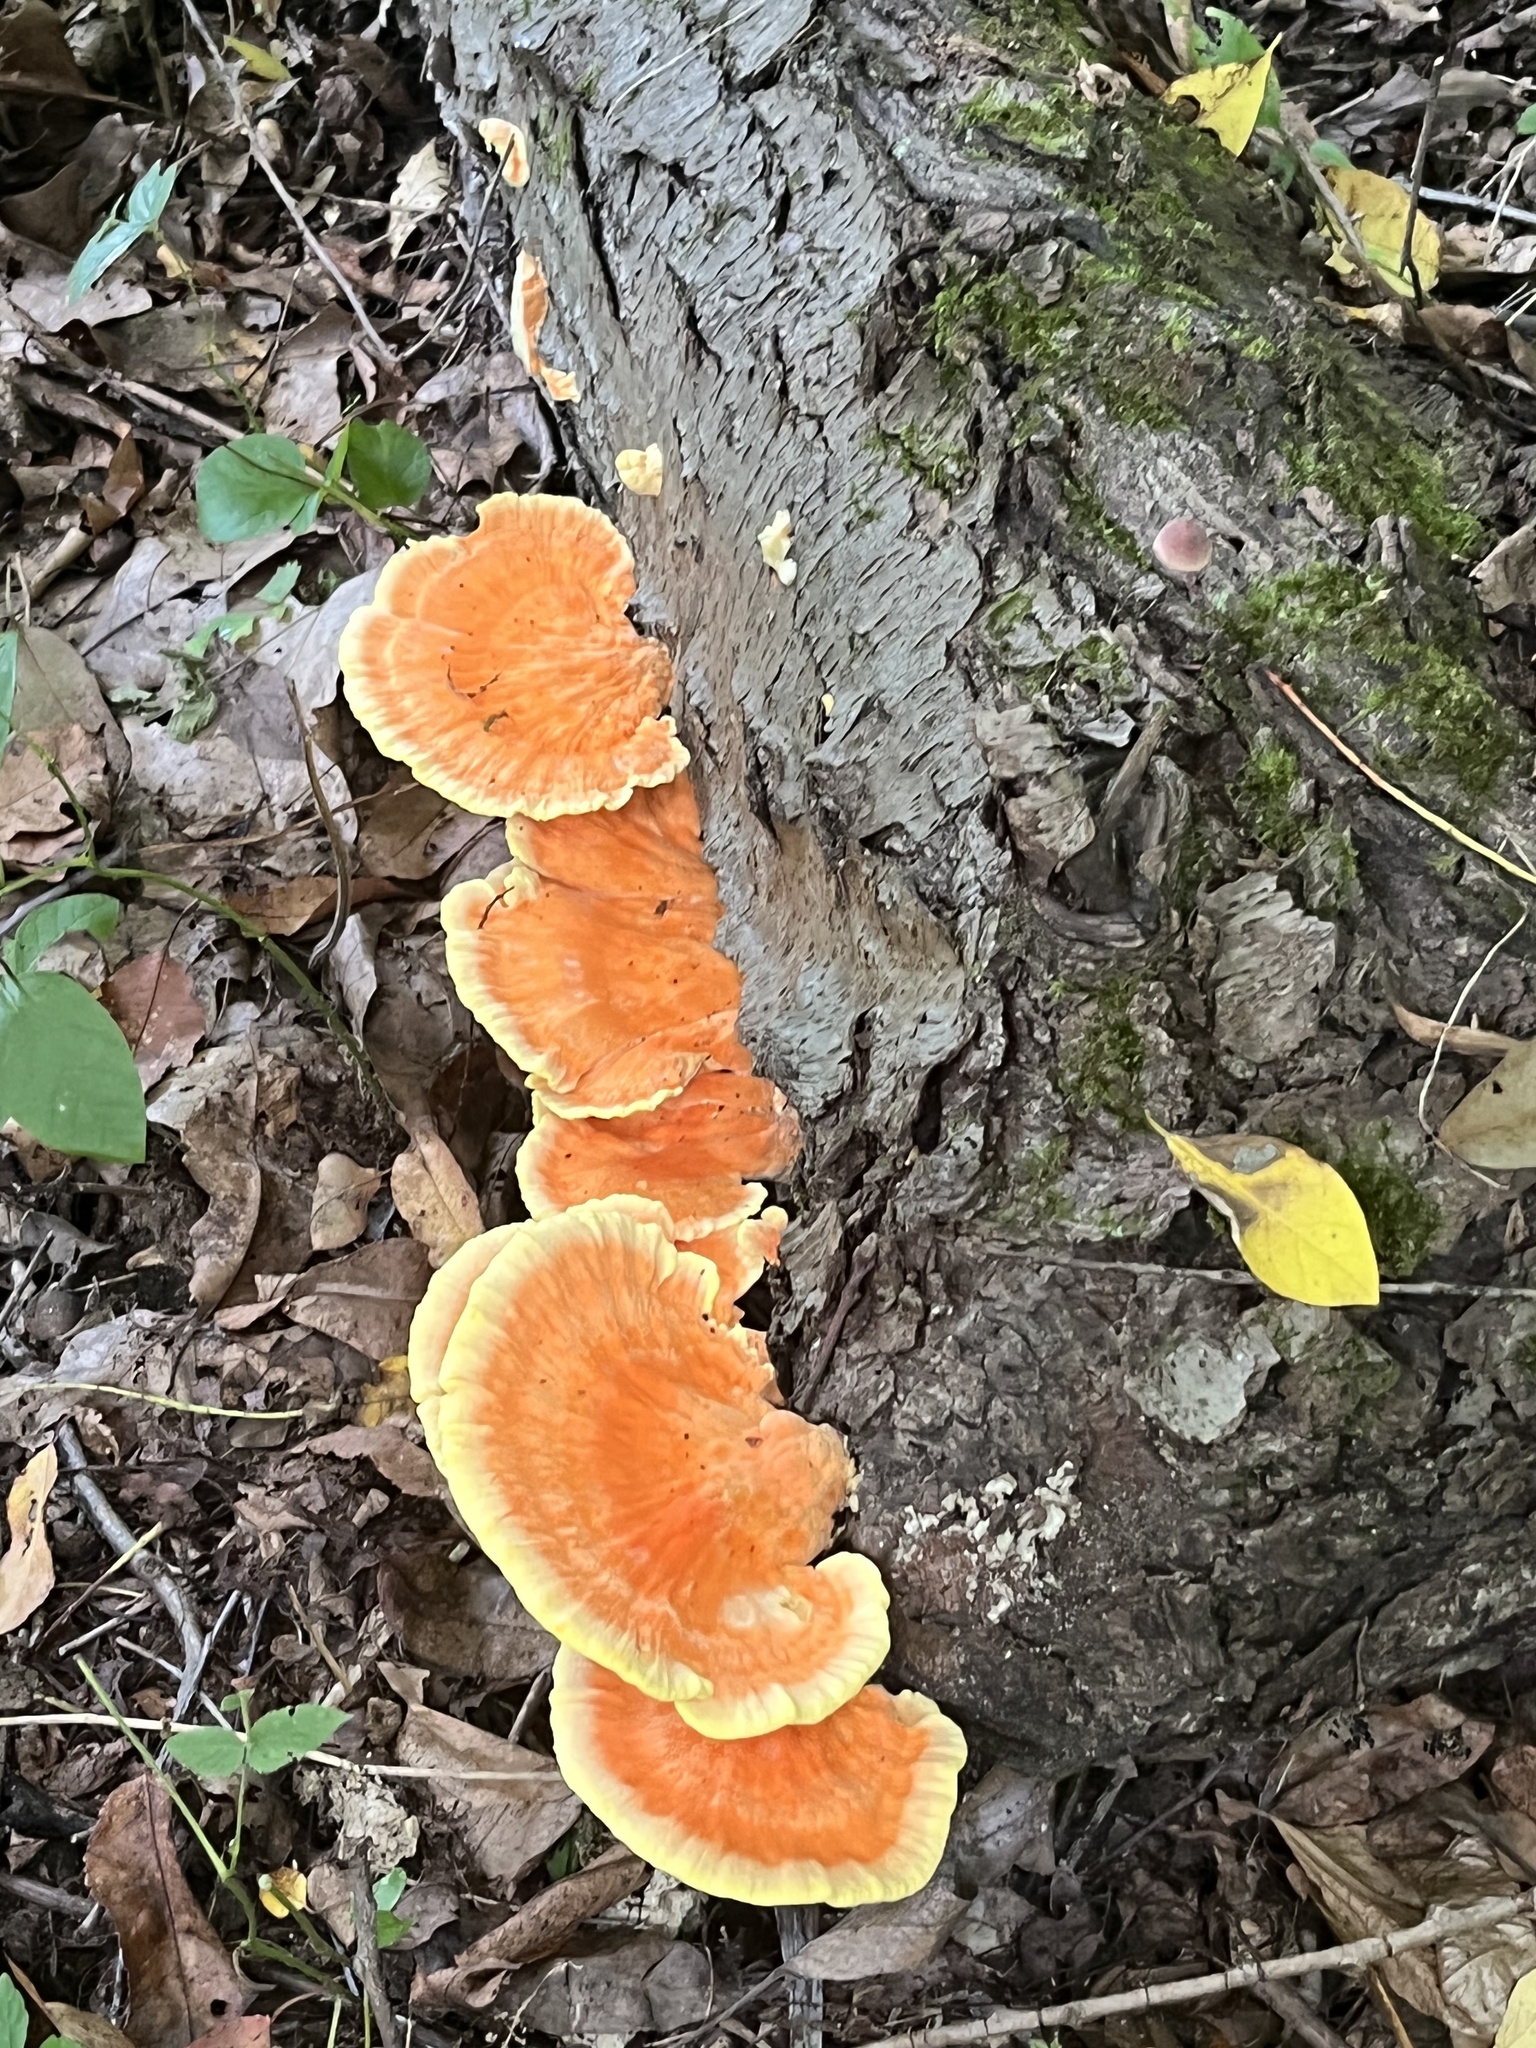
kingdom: Fungi
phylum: Basidiomycota
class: Agaricomycetes
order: Polyporales
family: Laetiporaceae
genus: Laetiporus
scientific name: Laetiporus sulphureus
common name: Chicken of the woods
